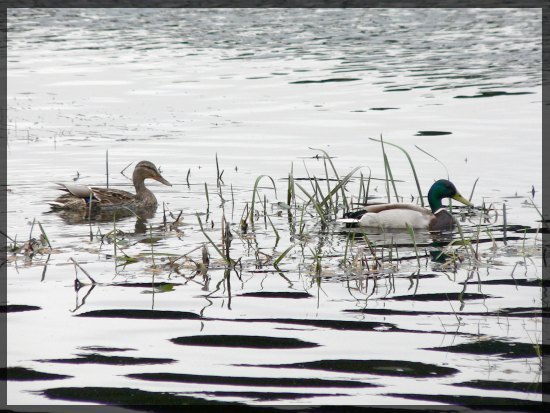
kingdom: Animalia
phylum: Chordata
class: Aves
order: Anseriformes
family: Anatidae
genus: Anas
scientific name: Anas platyrhynchos
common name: Mallard
